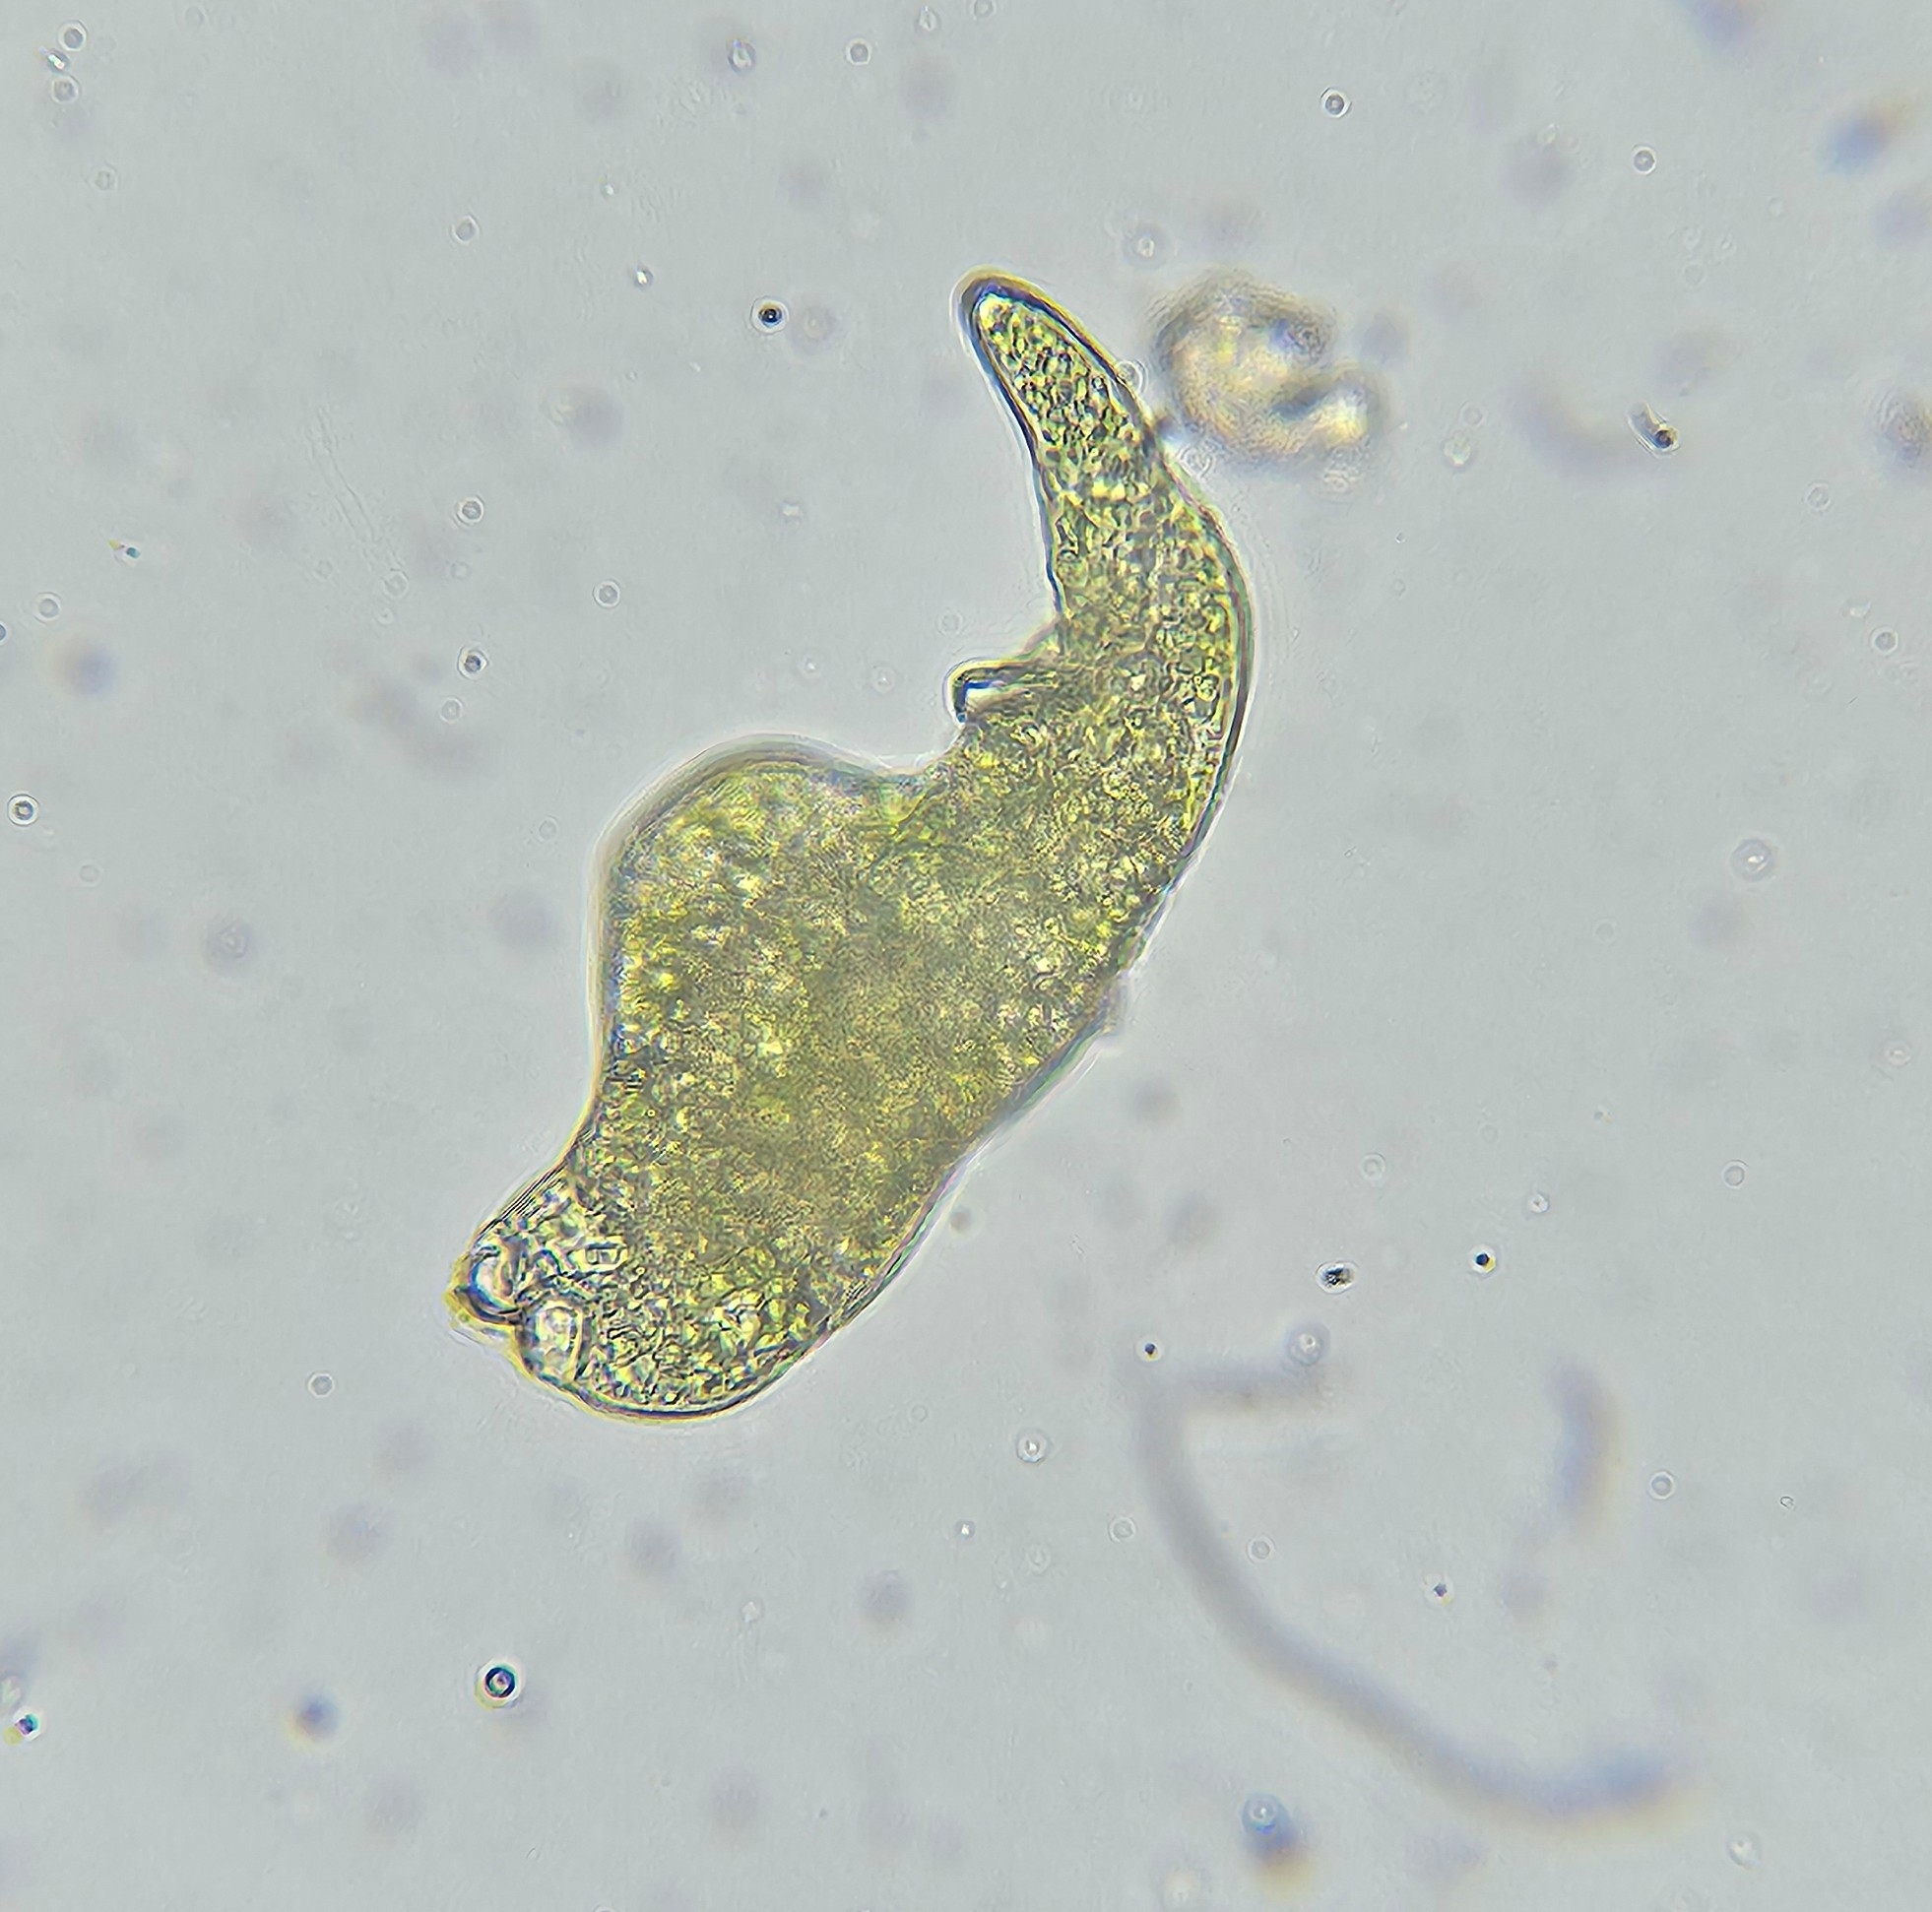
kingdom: Plantae
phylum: Bryophyta
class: Bryopsida
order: Bryales
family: Mniaceae
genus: Pohlia
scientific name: Pohlia annotina
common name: Pale-fruited nodding moss
